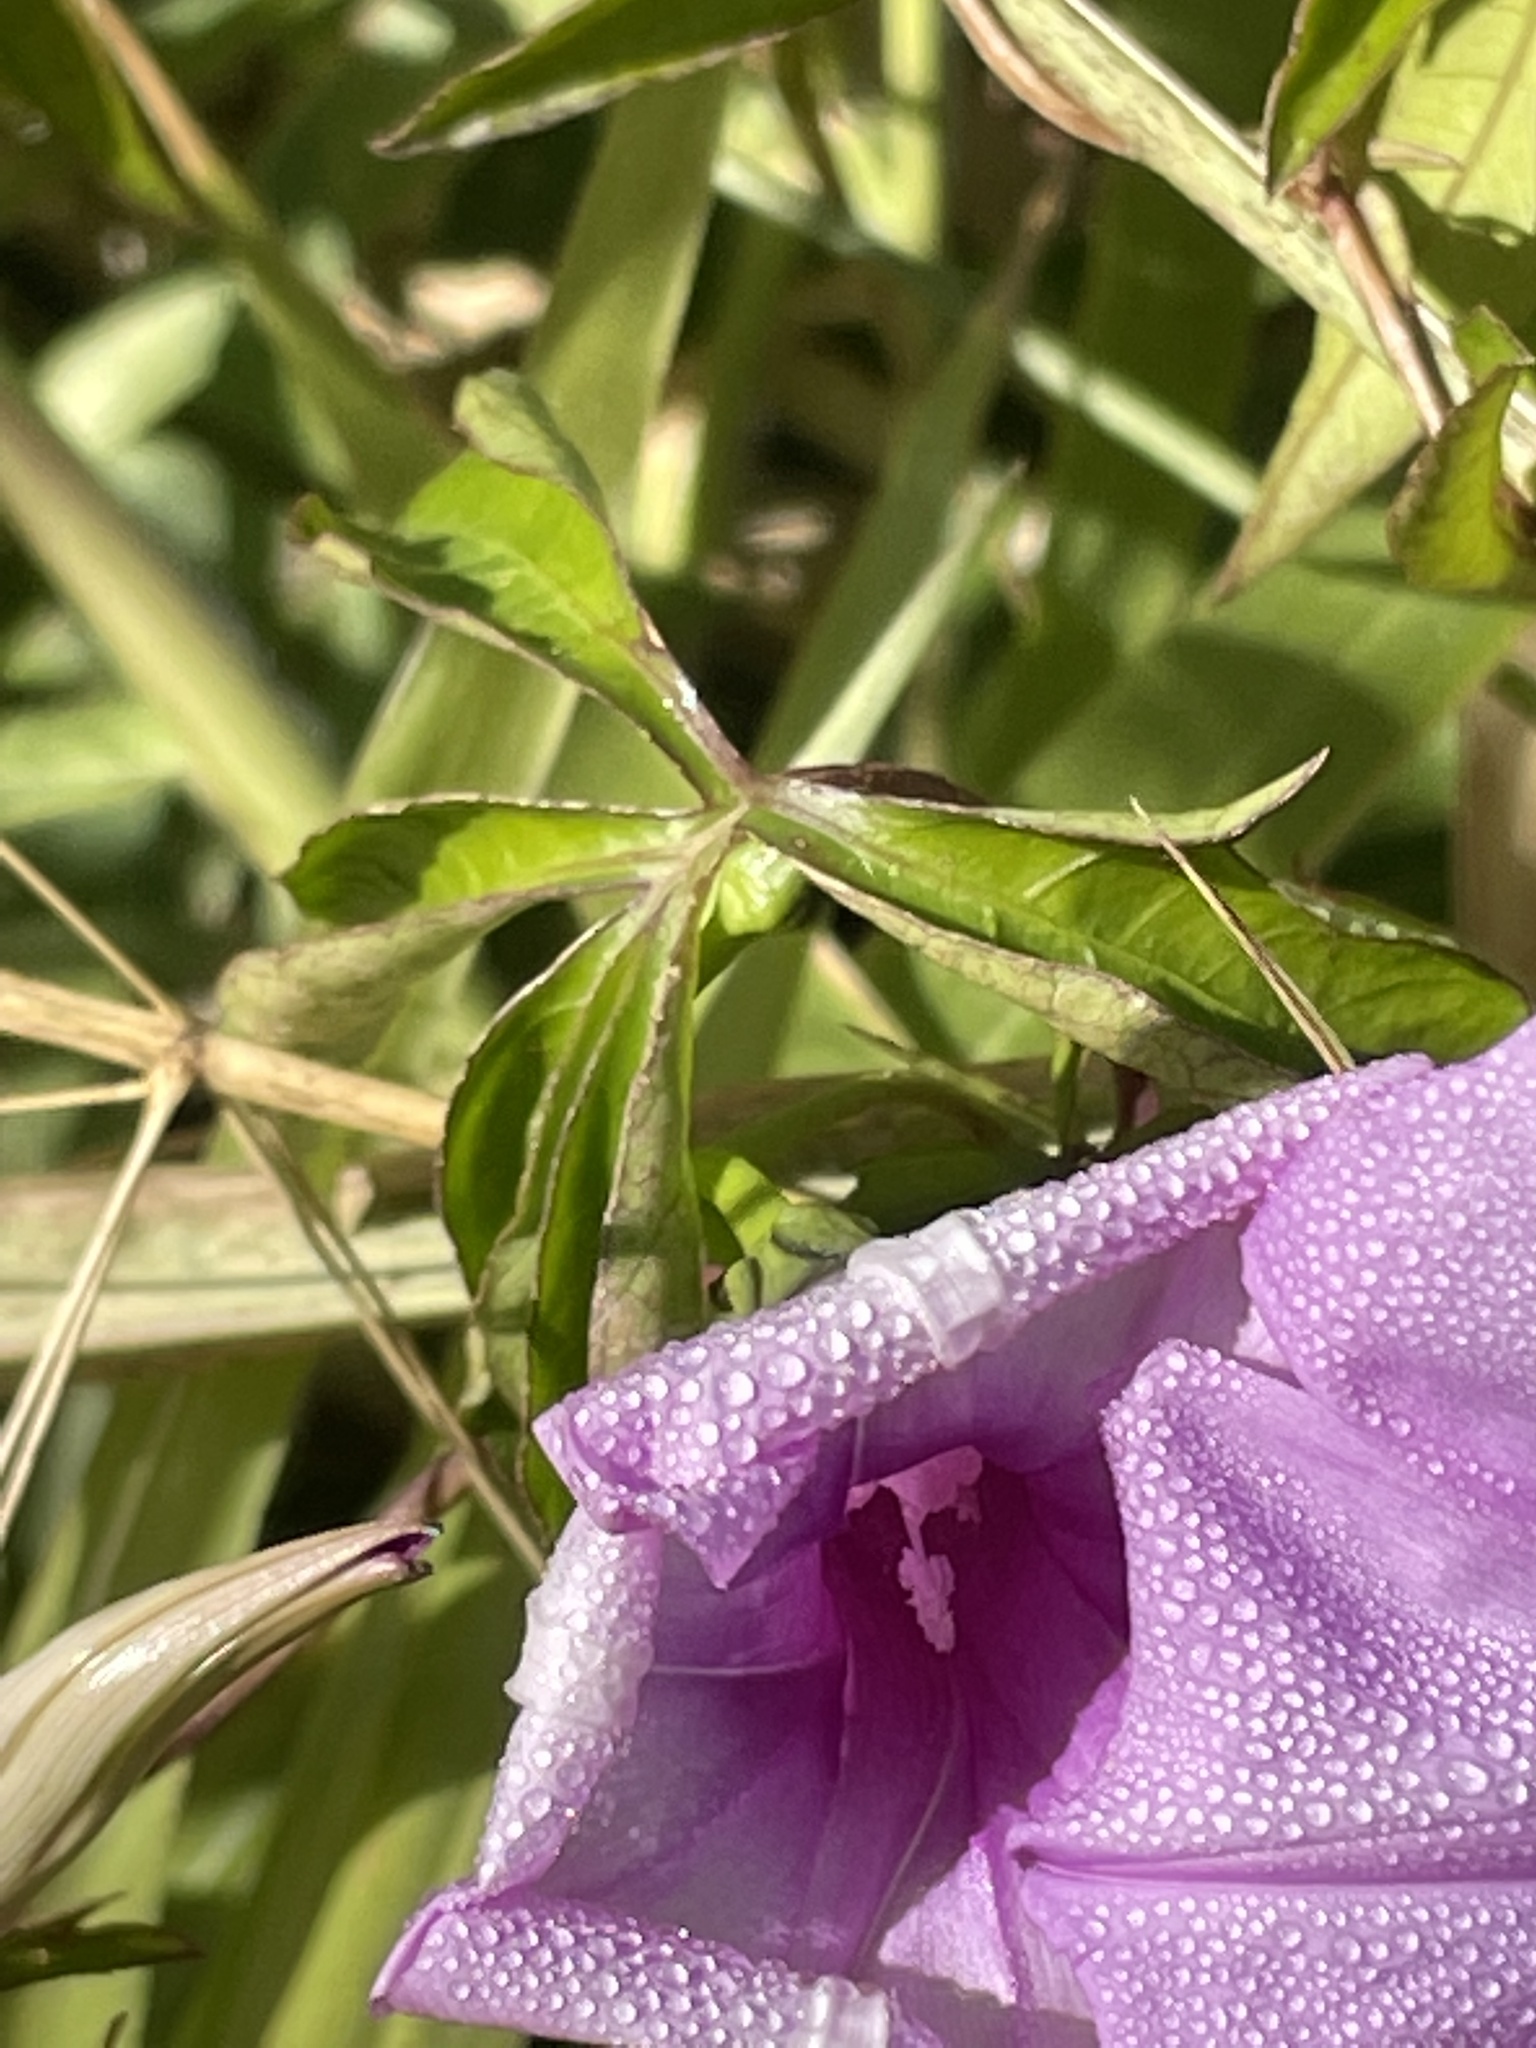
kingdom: Plantae
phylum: Tracheophyta
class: Magnoliopsida
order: Solanales
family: Convolvulaceae
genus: Ipomoea
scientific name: Ipomoea cairica
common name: Mile a minute vine
